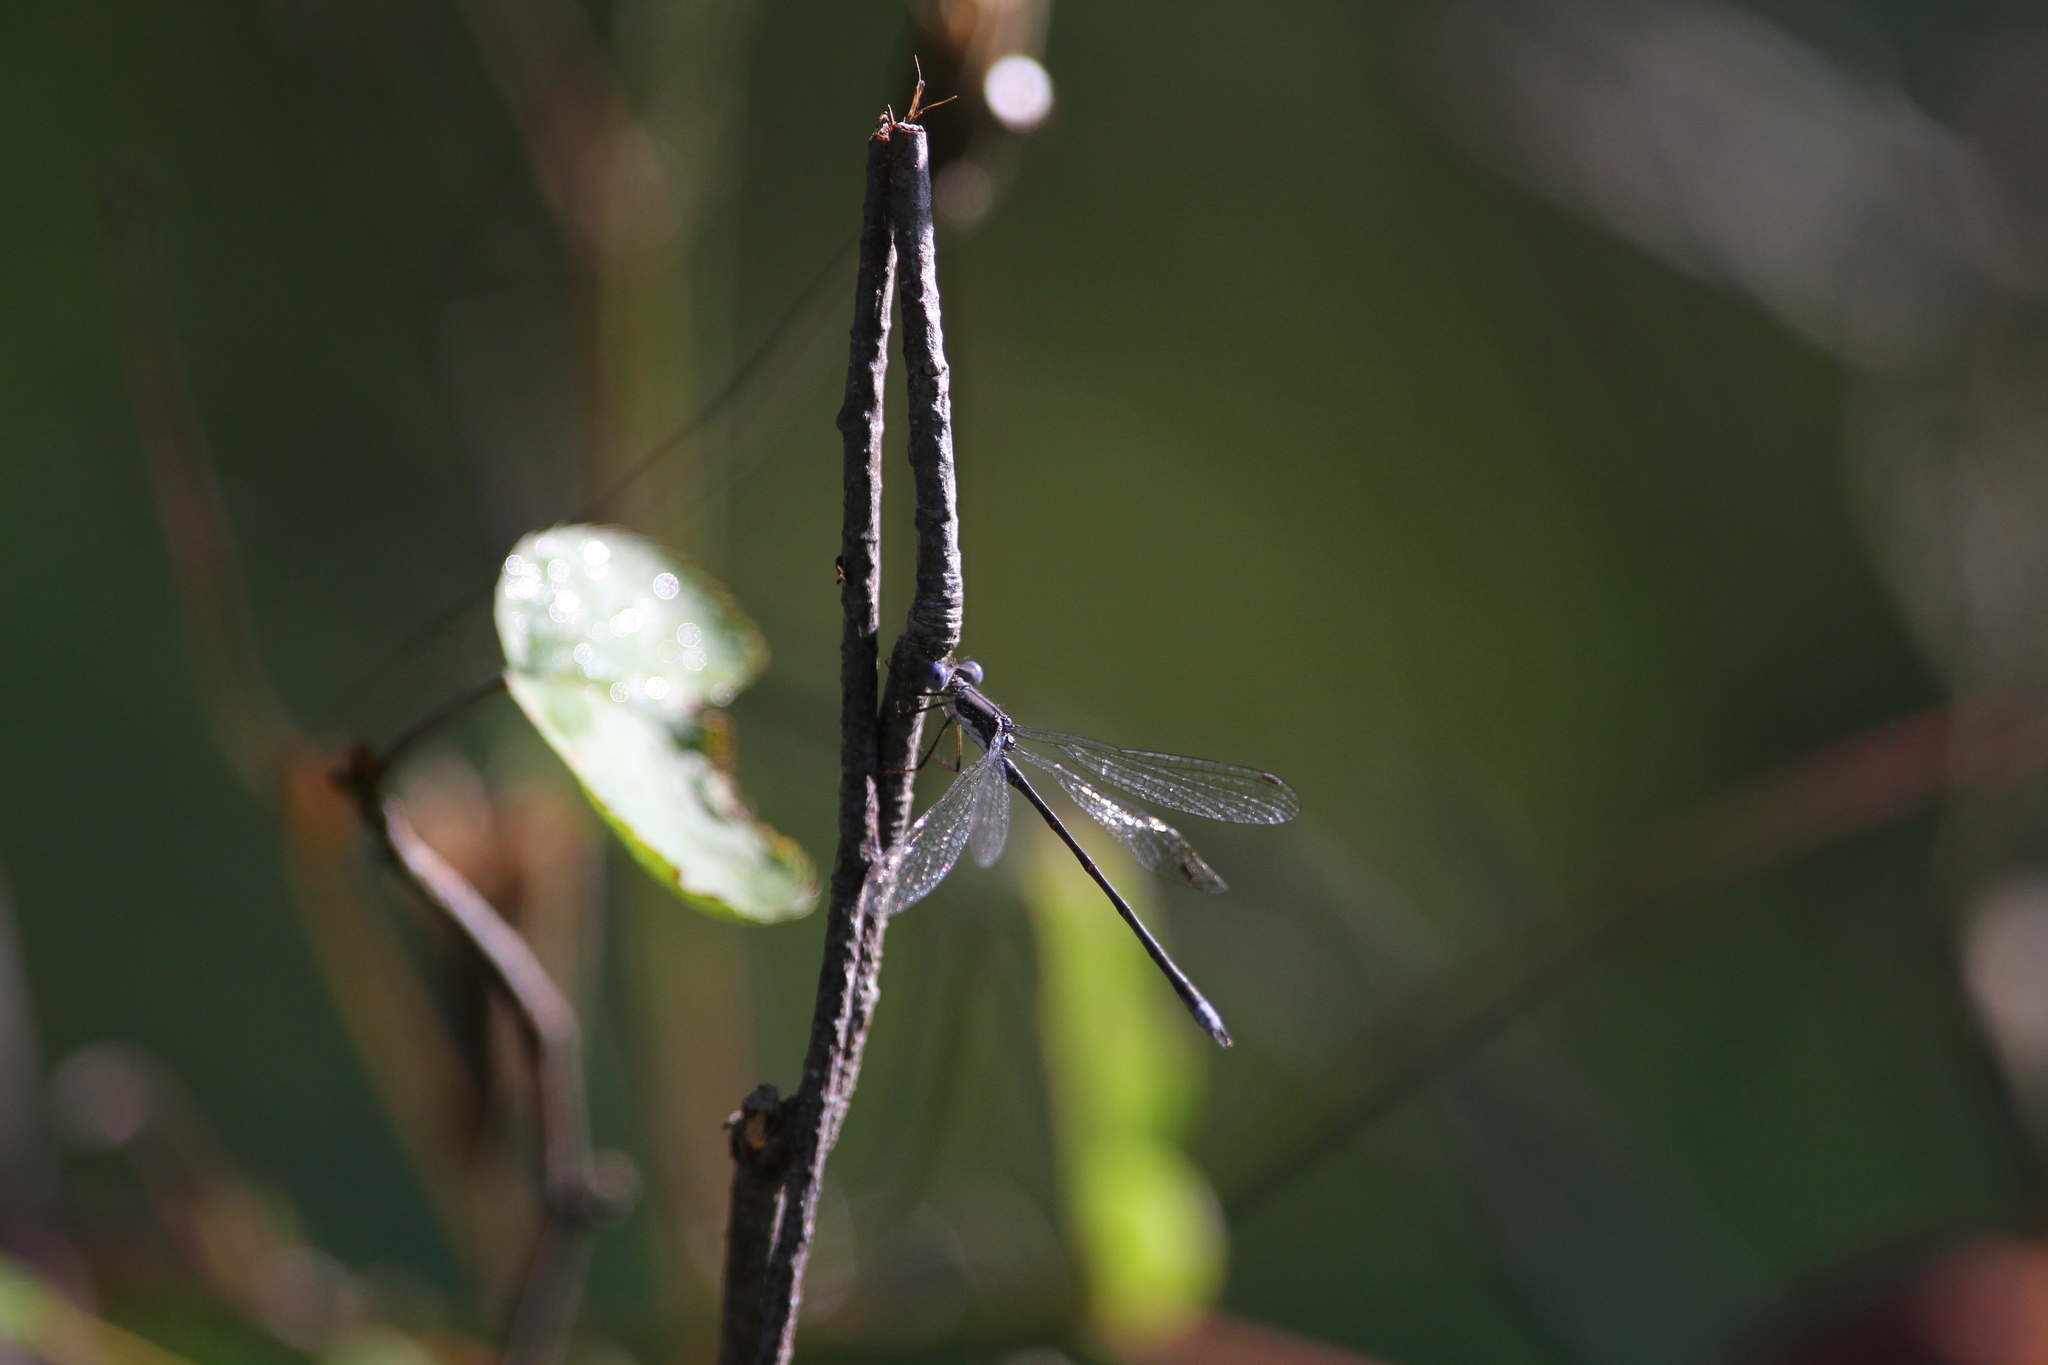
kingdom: Animalia
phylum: Arthropoda
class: Insecta
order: Odonata
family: Lestidae
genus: Lestes
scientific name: Lestes congener
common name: Spotted spreadwing
